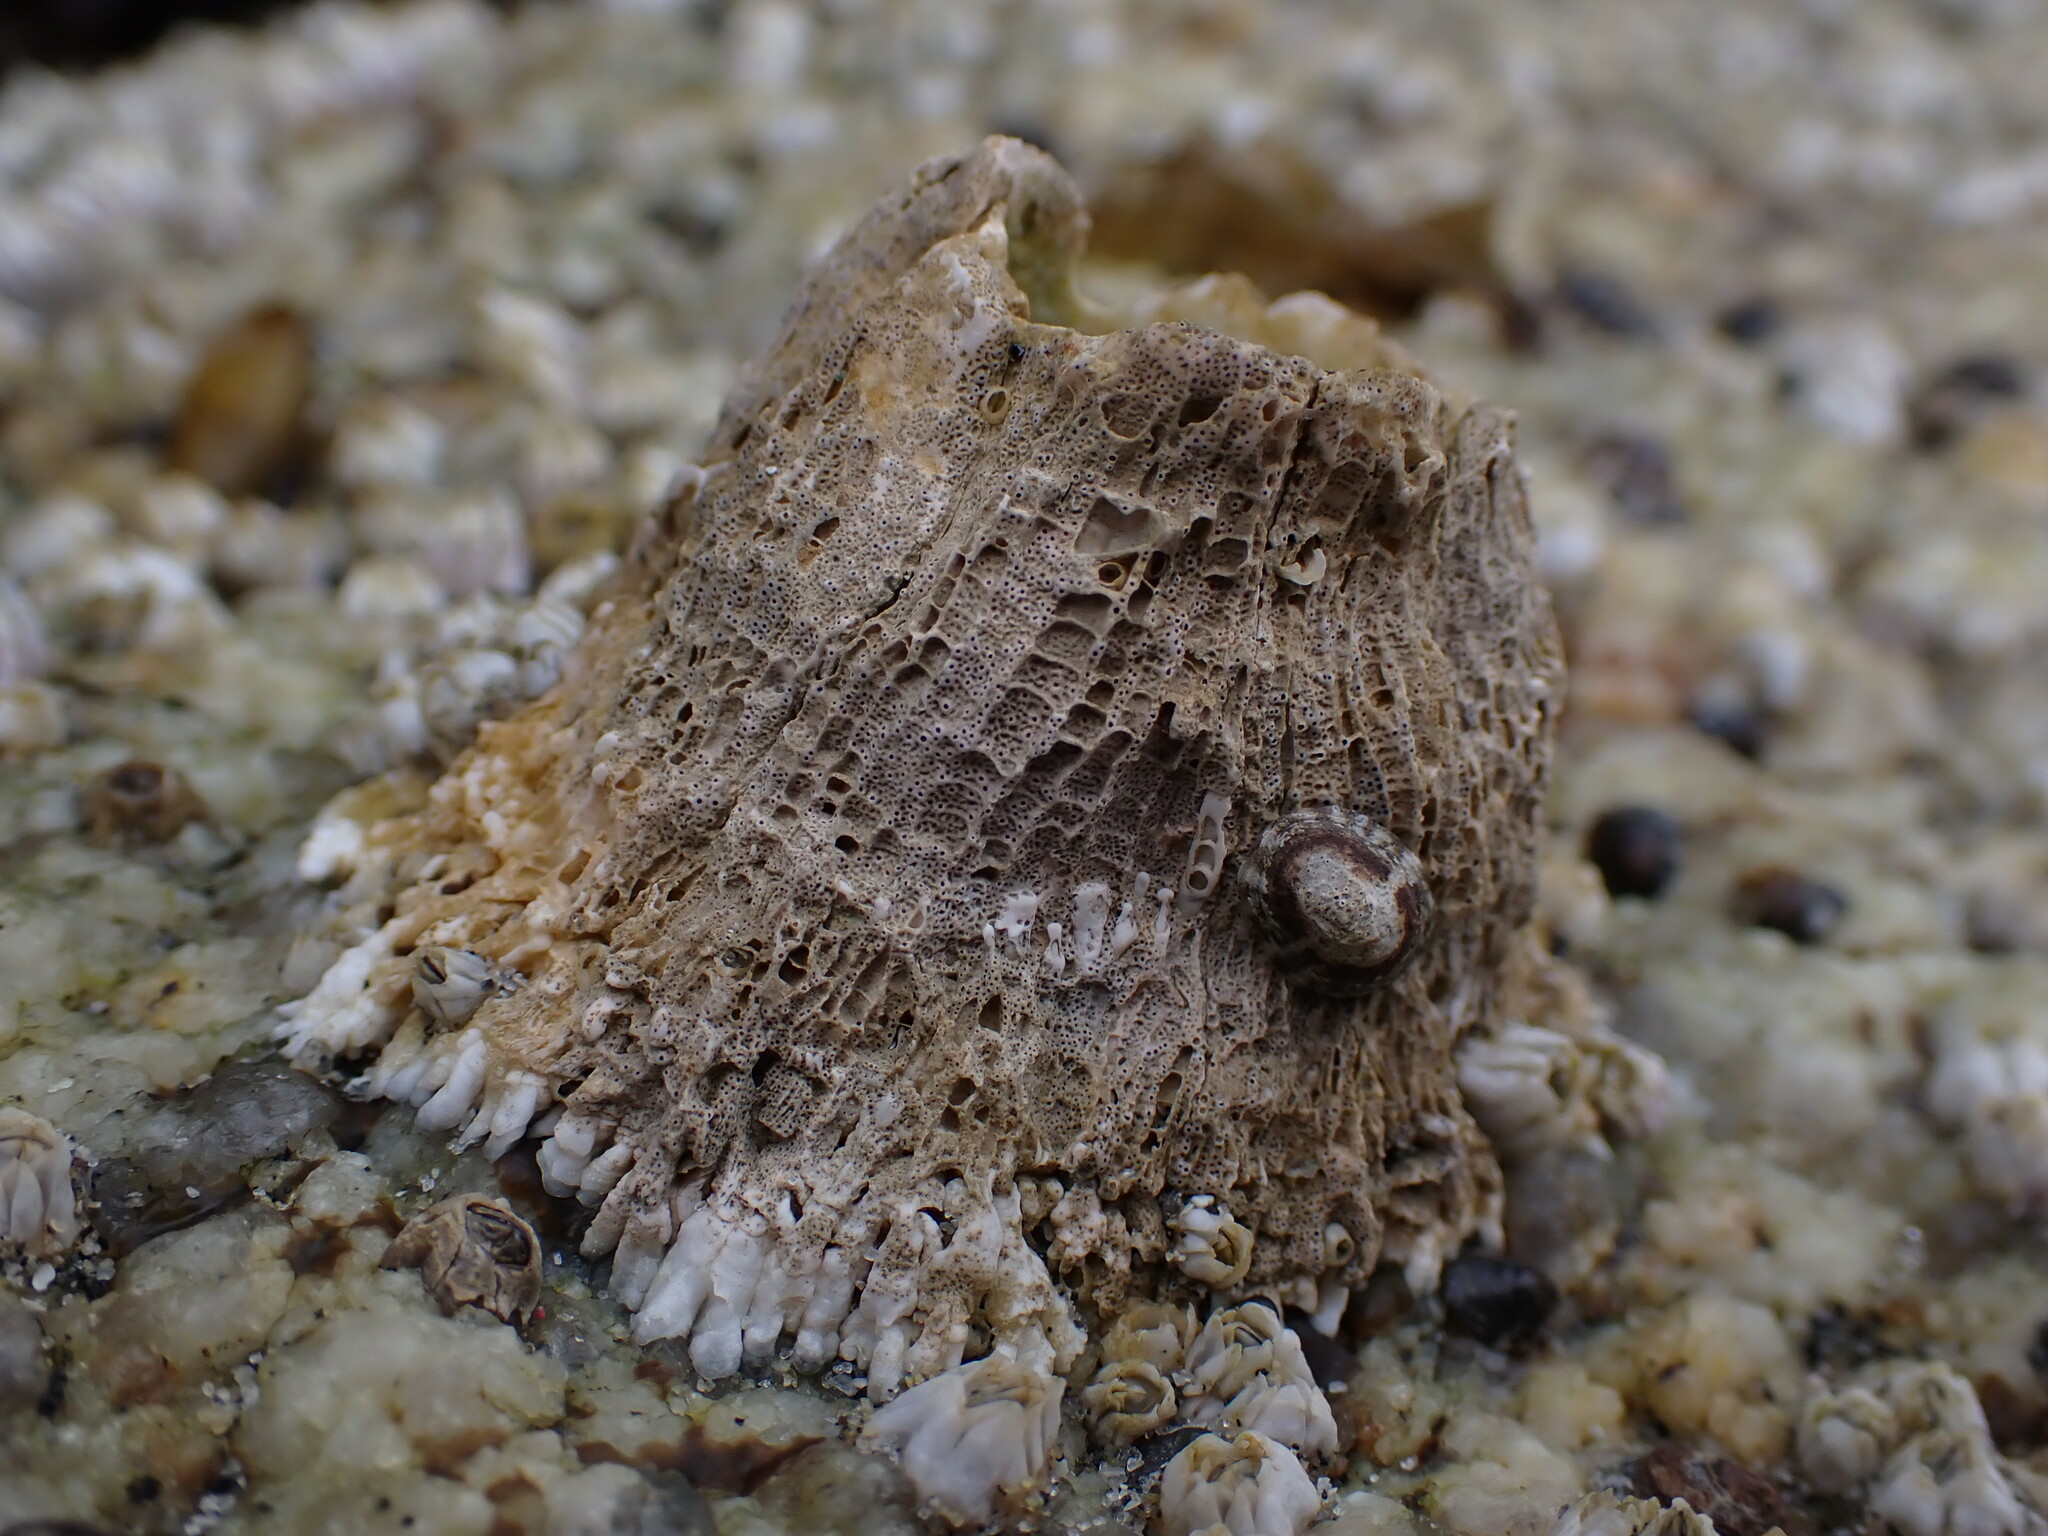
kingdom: Animalia
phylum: Arthropoda
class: Maxillopoda
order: Sessilia
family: Archaeobalanidae
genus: Semibalanus
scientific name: Semibalanus cariosus
